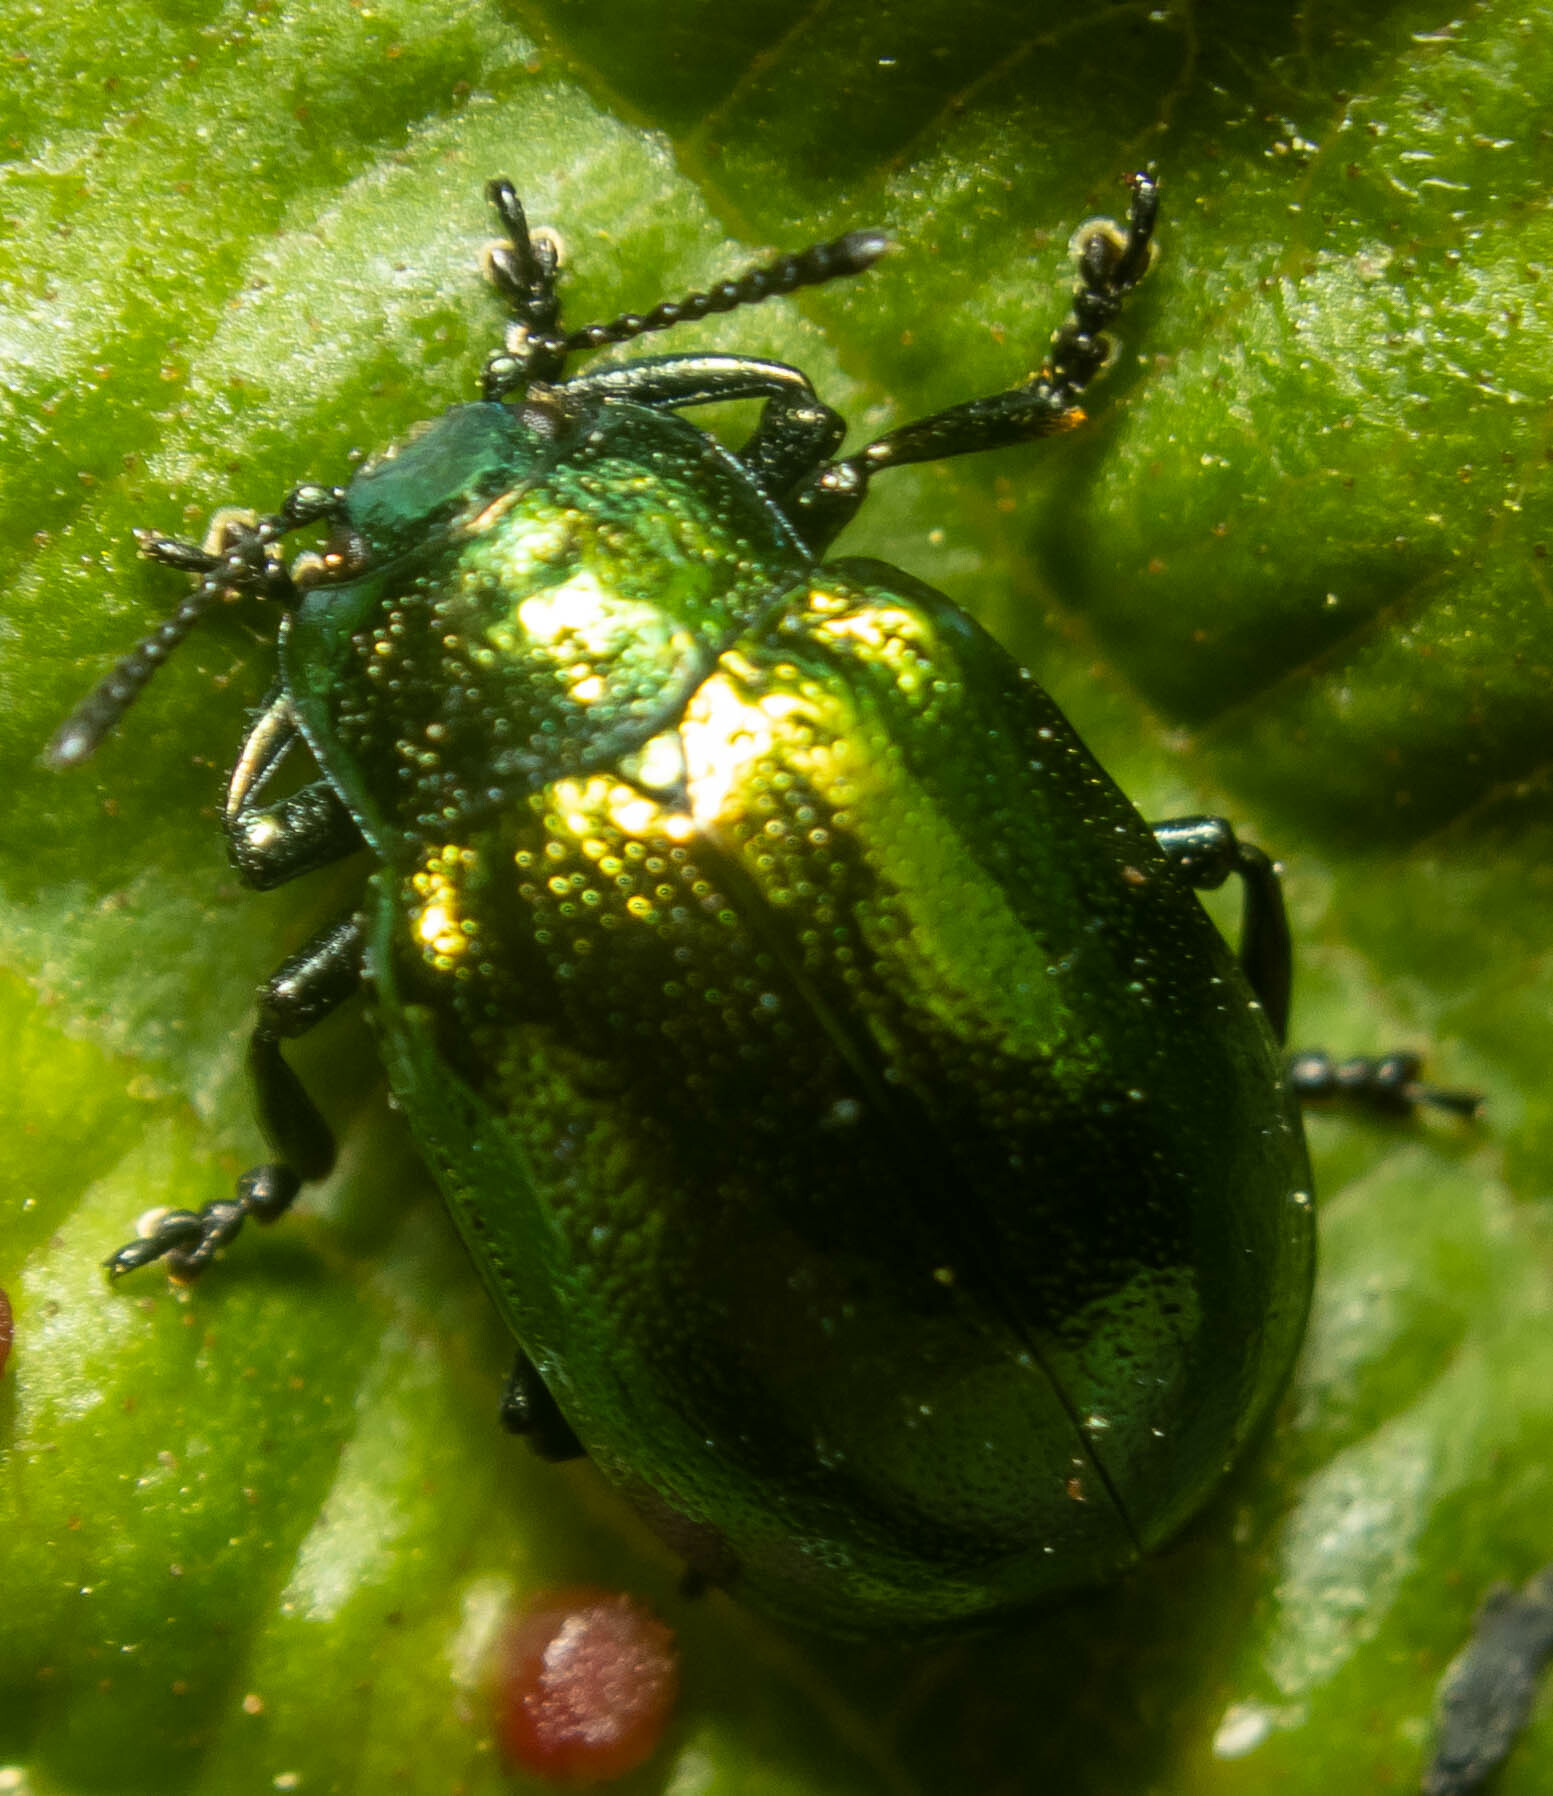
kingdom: Animalia
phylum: Arthropoda
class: Insecta
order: Coleoptera
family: Chrysomelidae
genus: Plagiosterna
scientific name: Plagiosterna aenea
